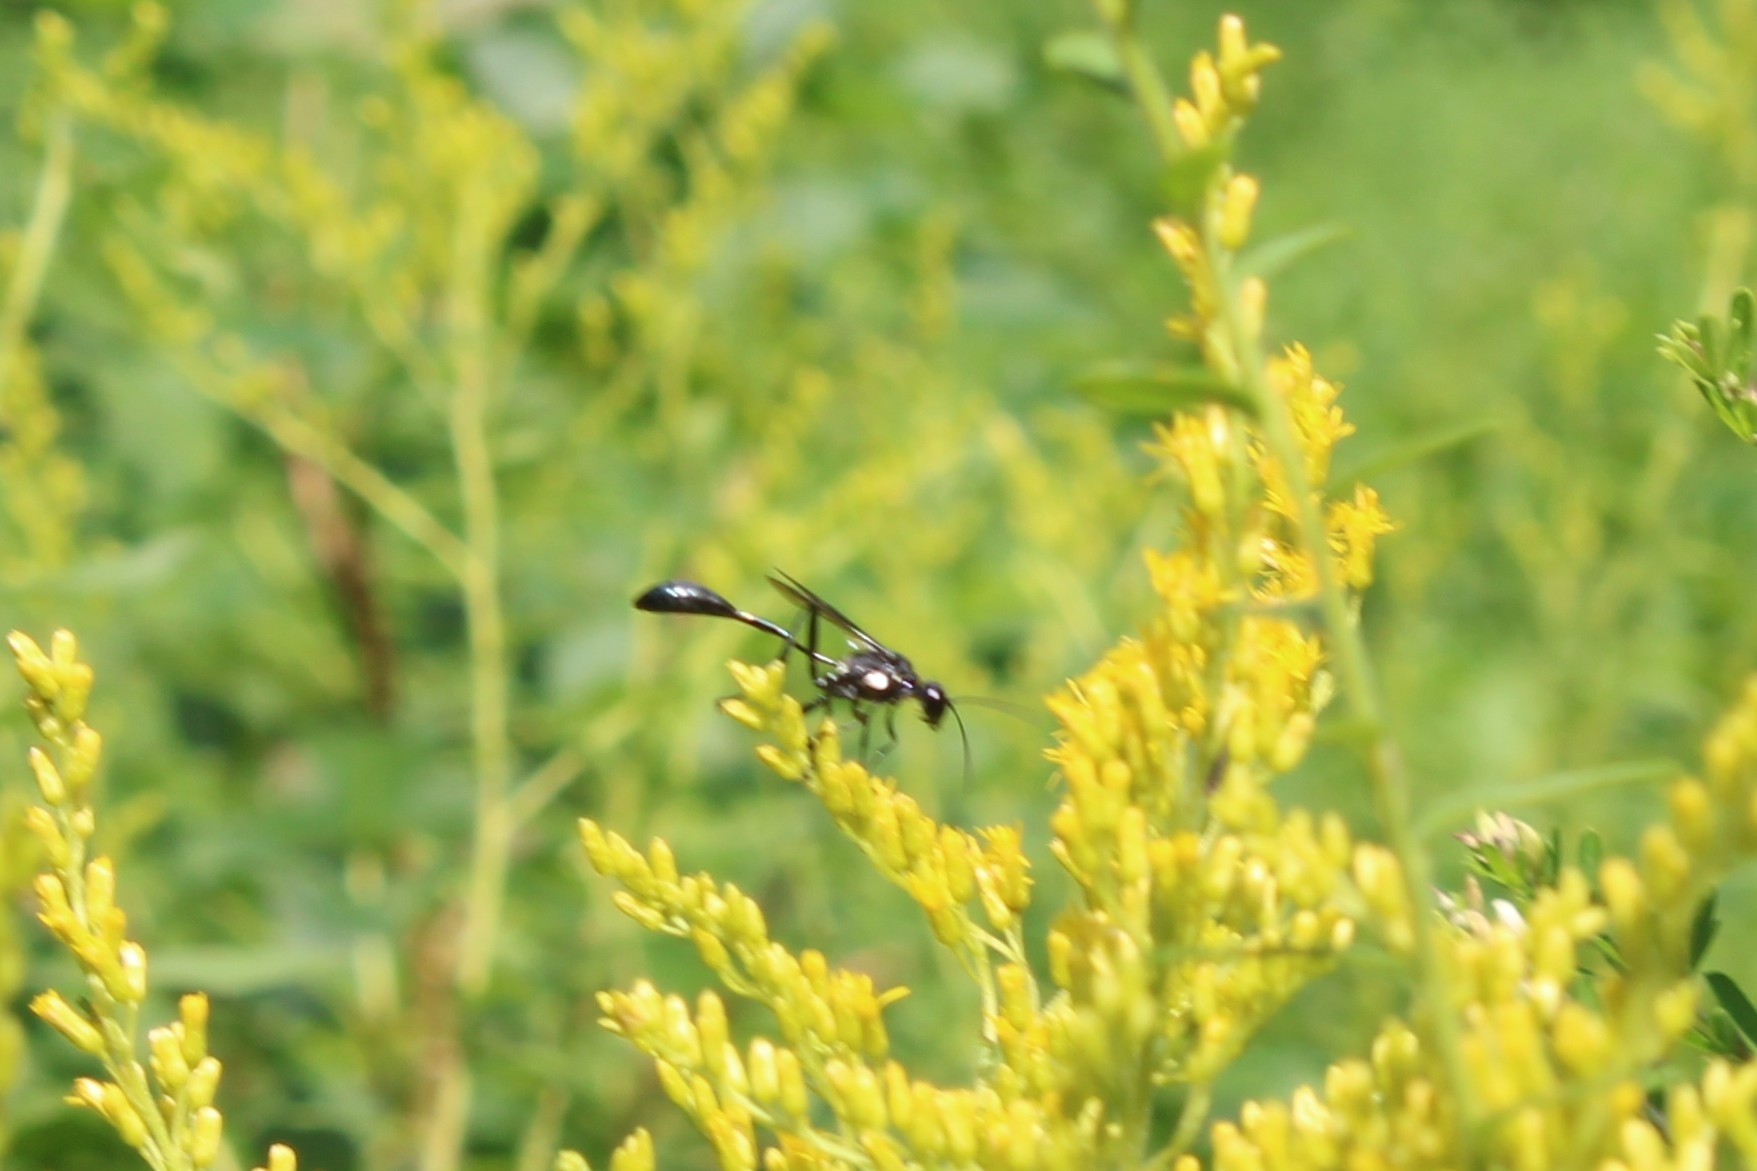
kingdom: Animalia
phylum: Arthropoda
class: Insecta
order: Hymenoptera
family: Sphecidae
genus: Eremnophila
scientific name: Eremnophila aureonotata
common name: Gold-marked thread-waisted wasp
